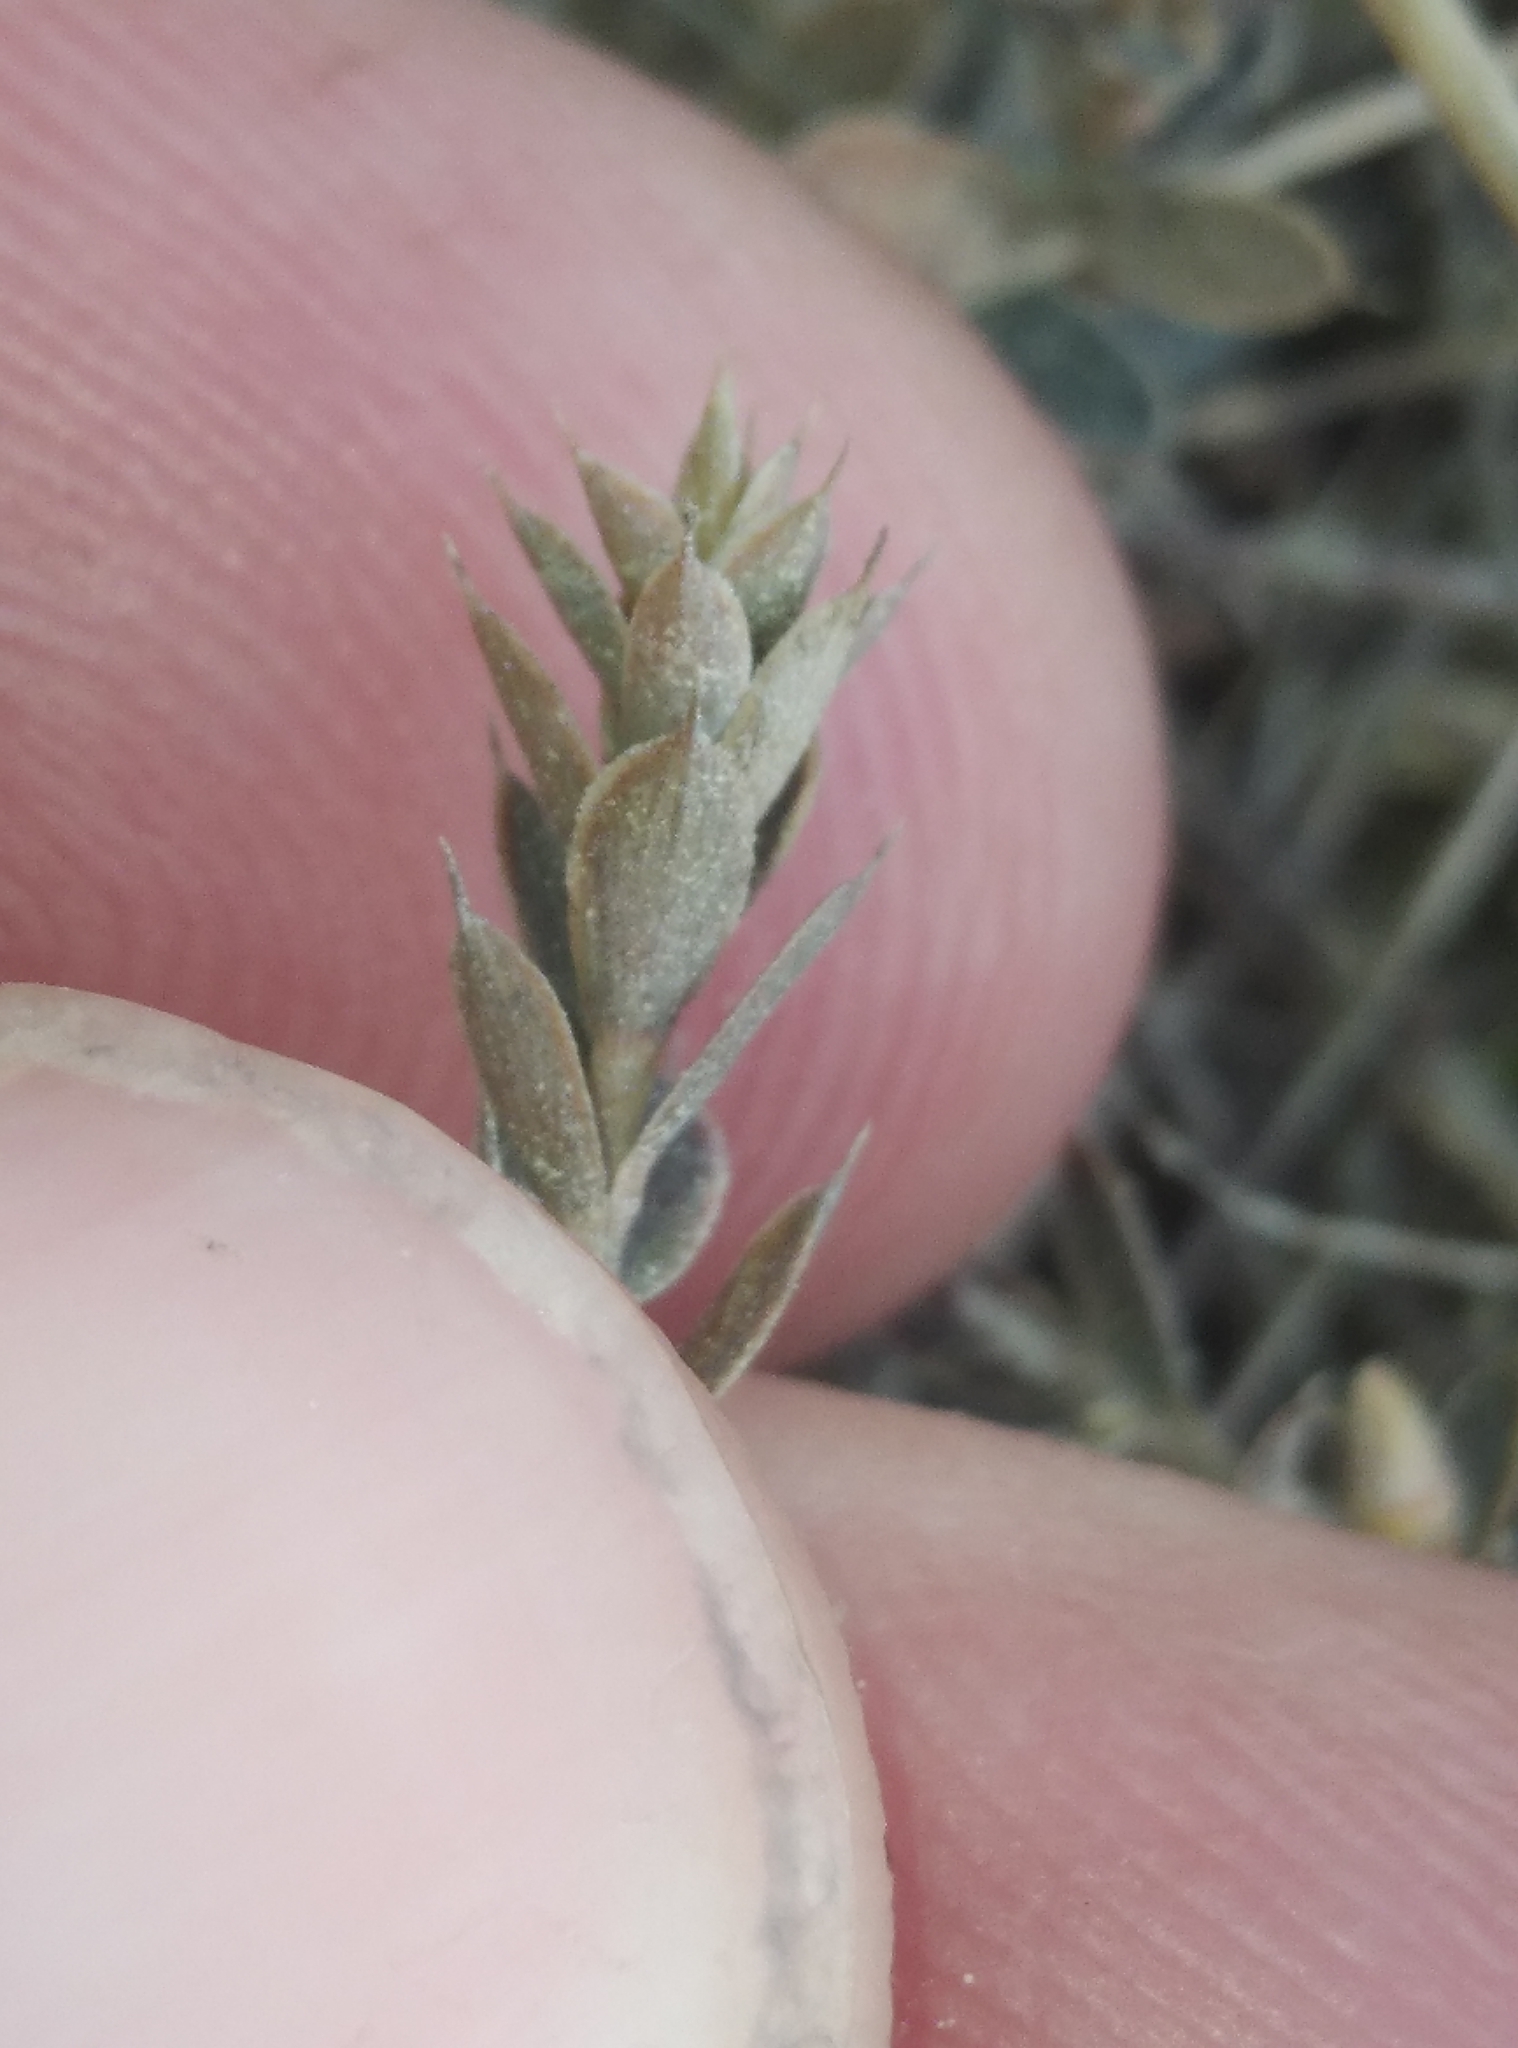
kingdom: Plantae
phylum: Tracheophyta
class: Magnoliopsida
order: Ericales
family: Ericaceae
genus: Styphelia
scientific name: Styphelia nesophila
